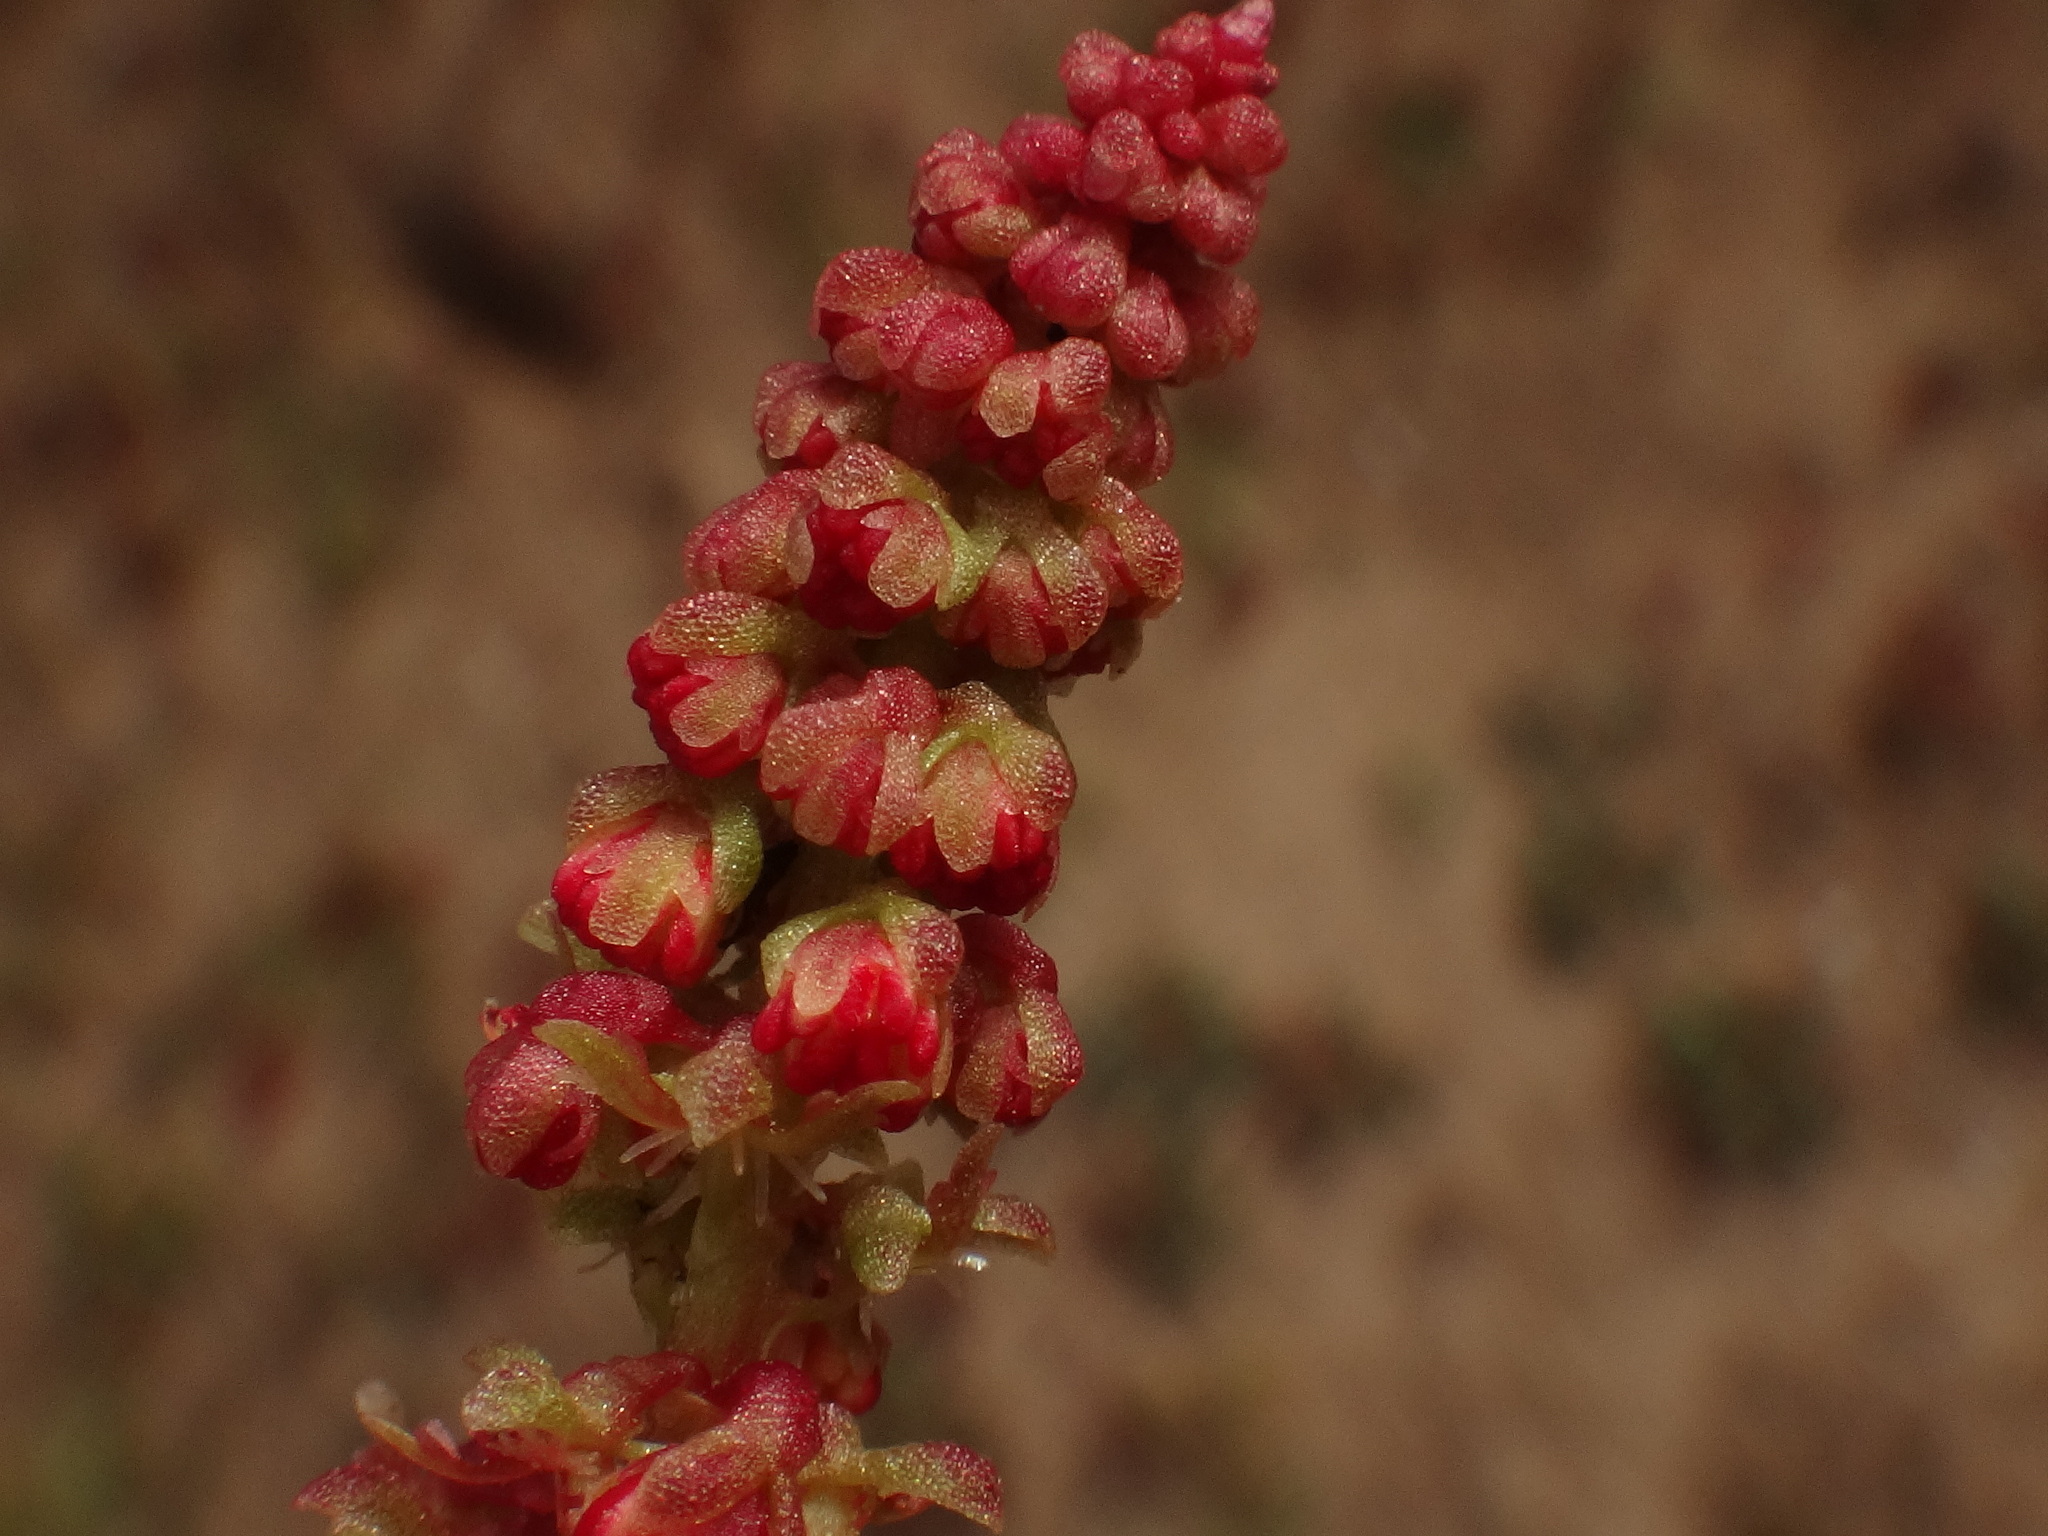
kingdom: Plantae
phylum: Tracheophyta
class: Magnoliopsida
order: Caryophyllales
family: Polygonaceae
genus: Rumex
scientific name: Rumex bucephalophorus
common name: Red dock
